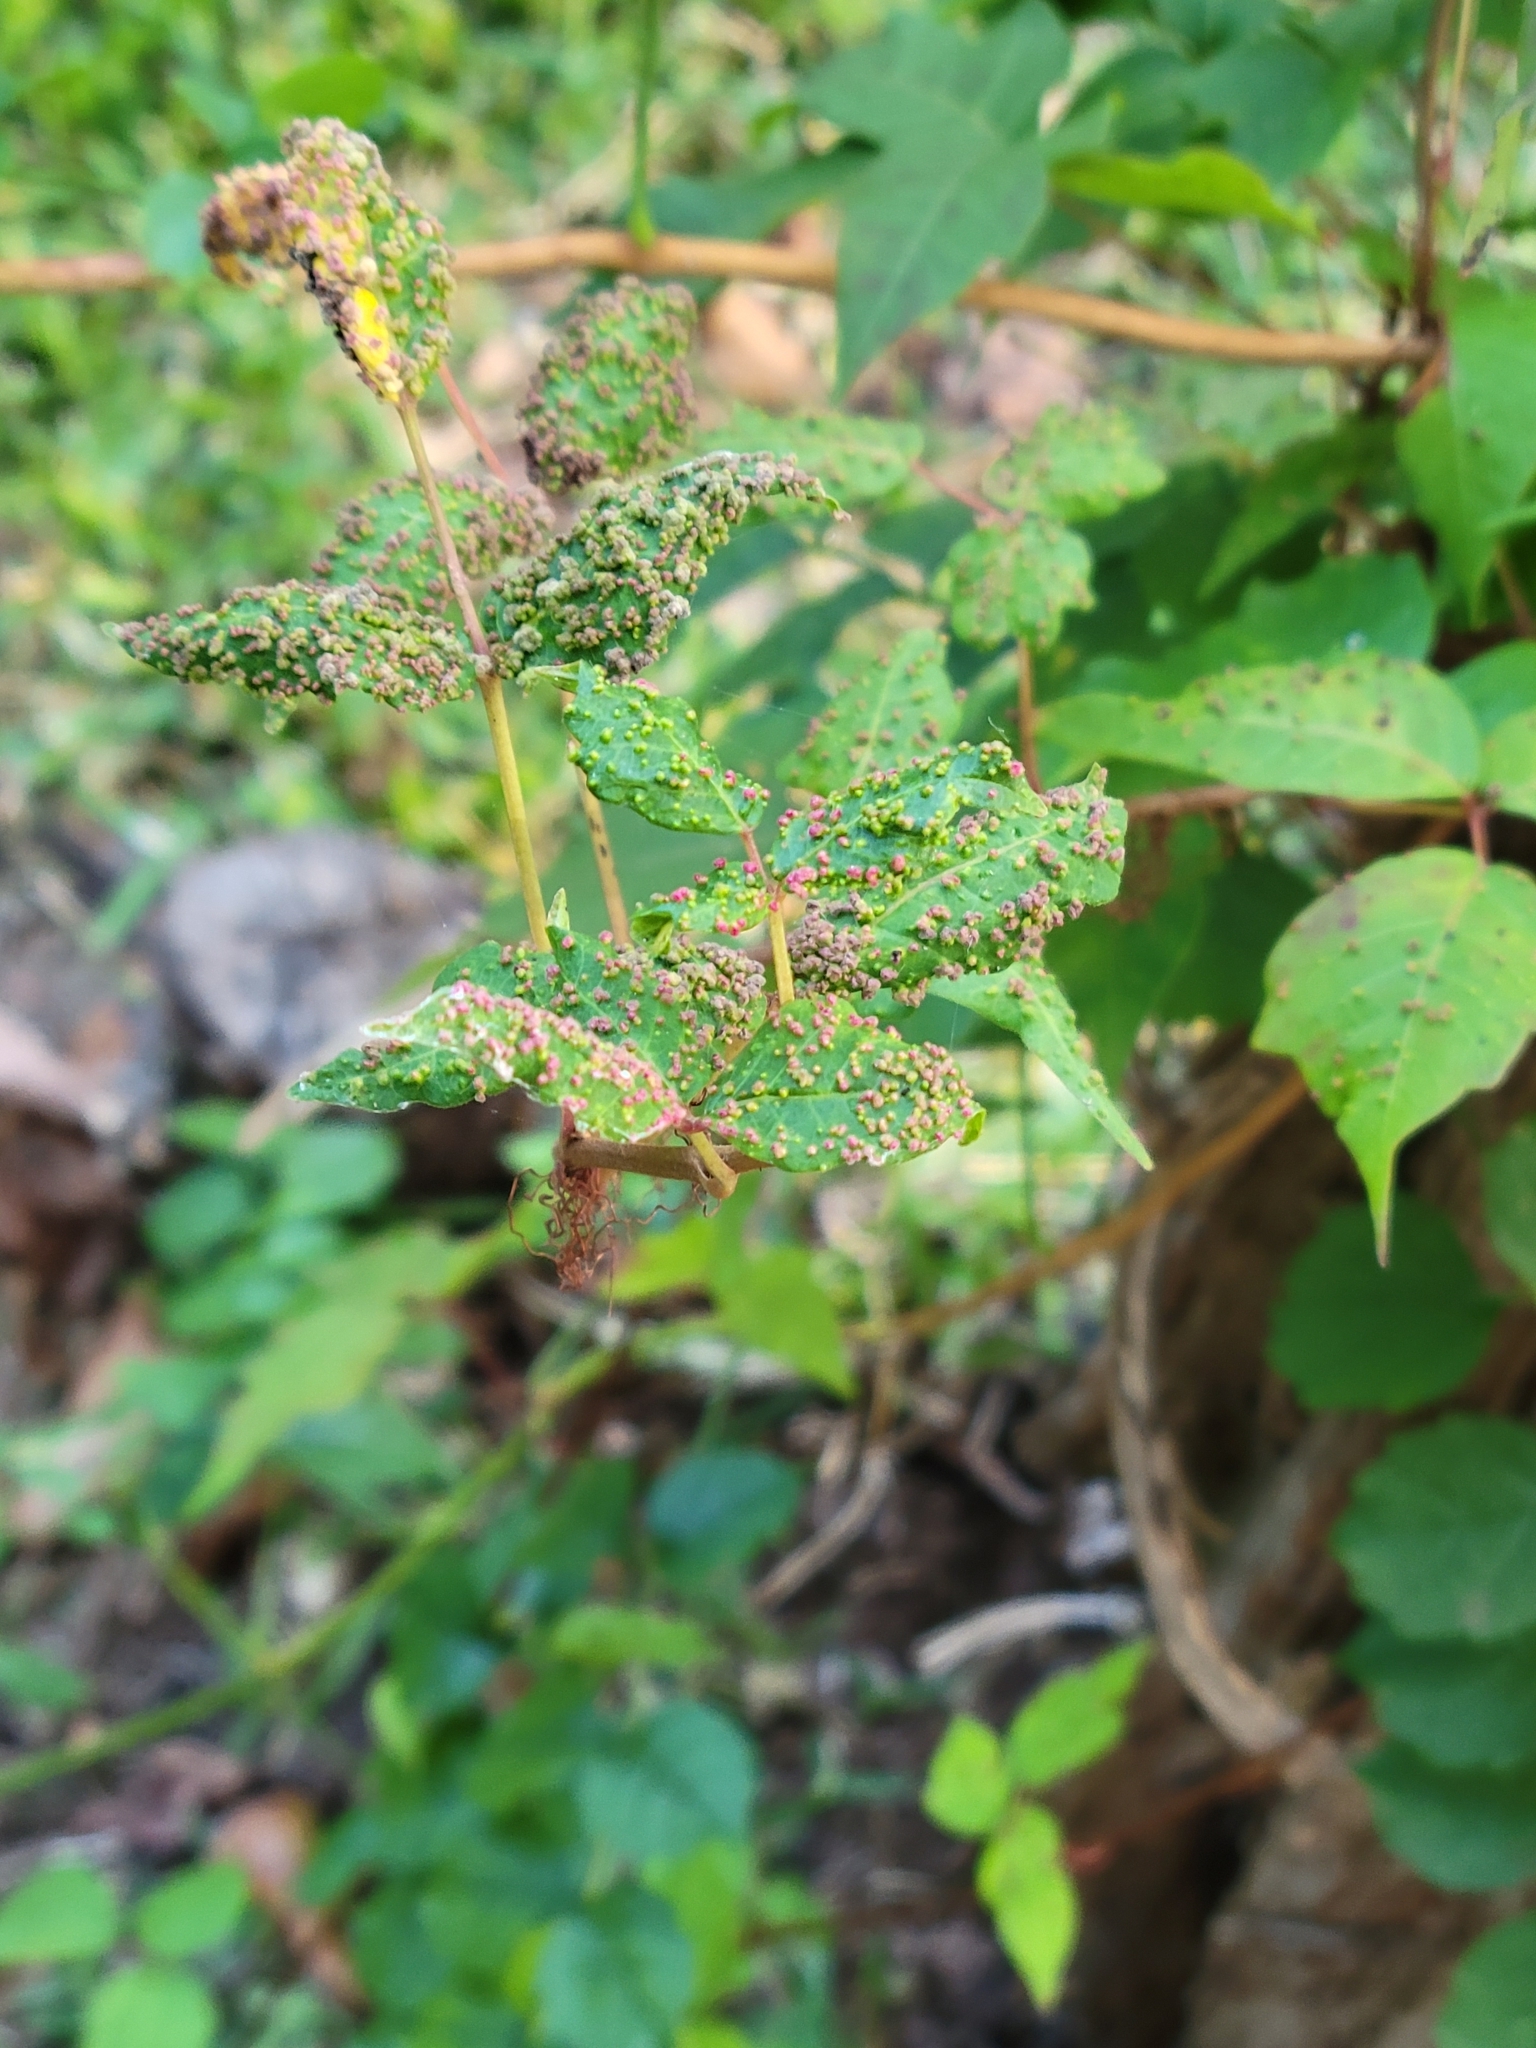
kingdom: Animalia
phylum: Arthropoda
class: Arachnida
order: Trombidiformes
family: Eriophyidae
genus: Aculops
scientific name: Aculops
